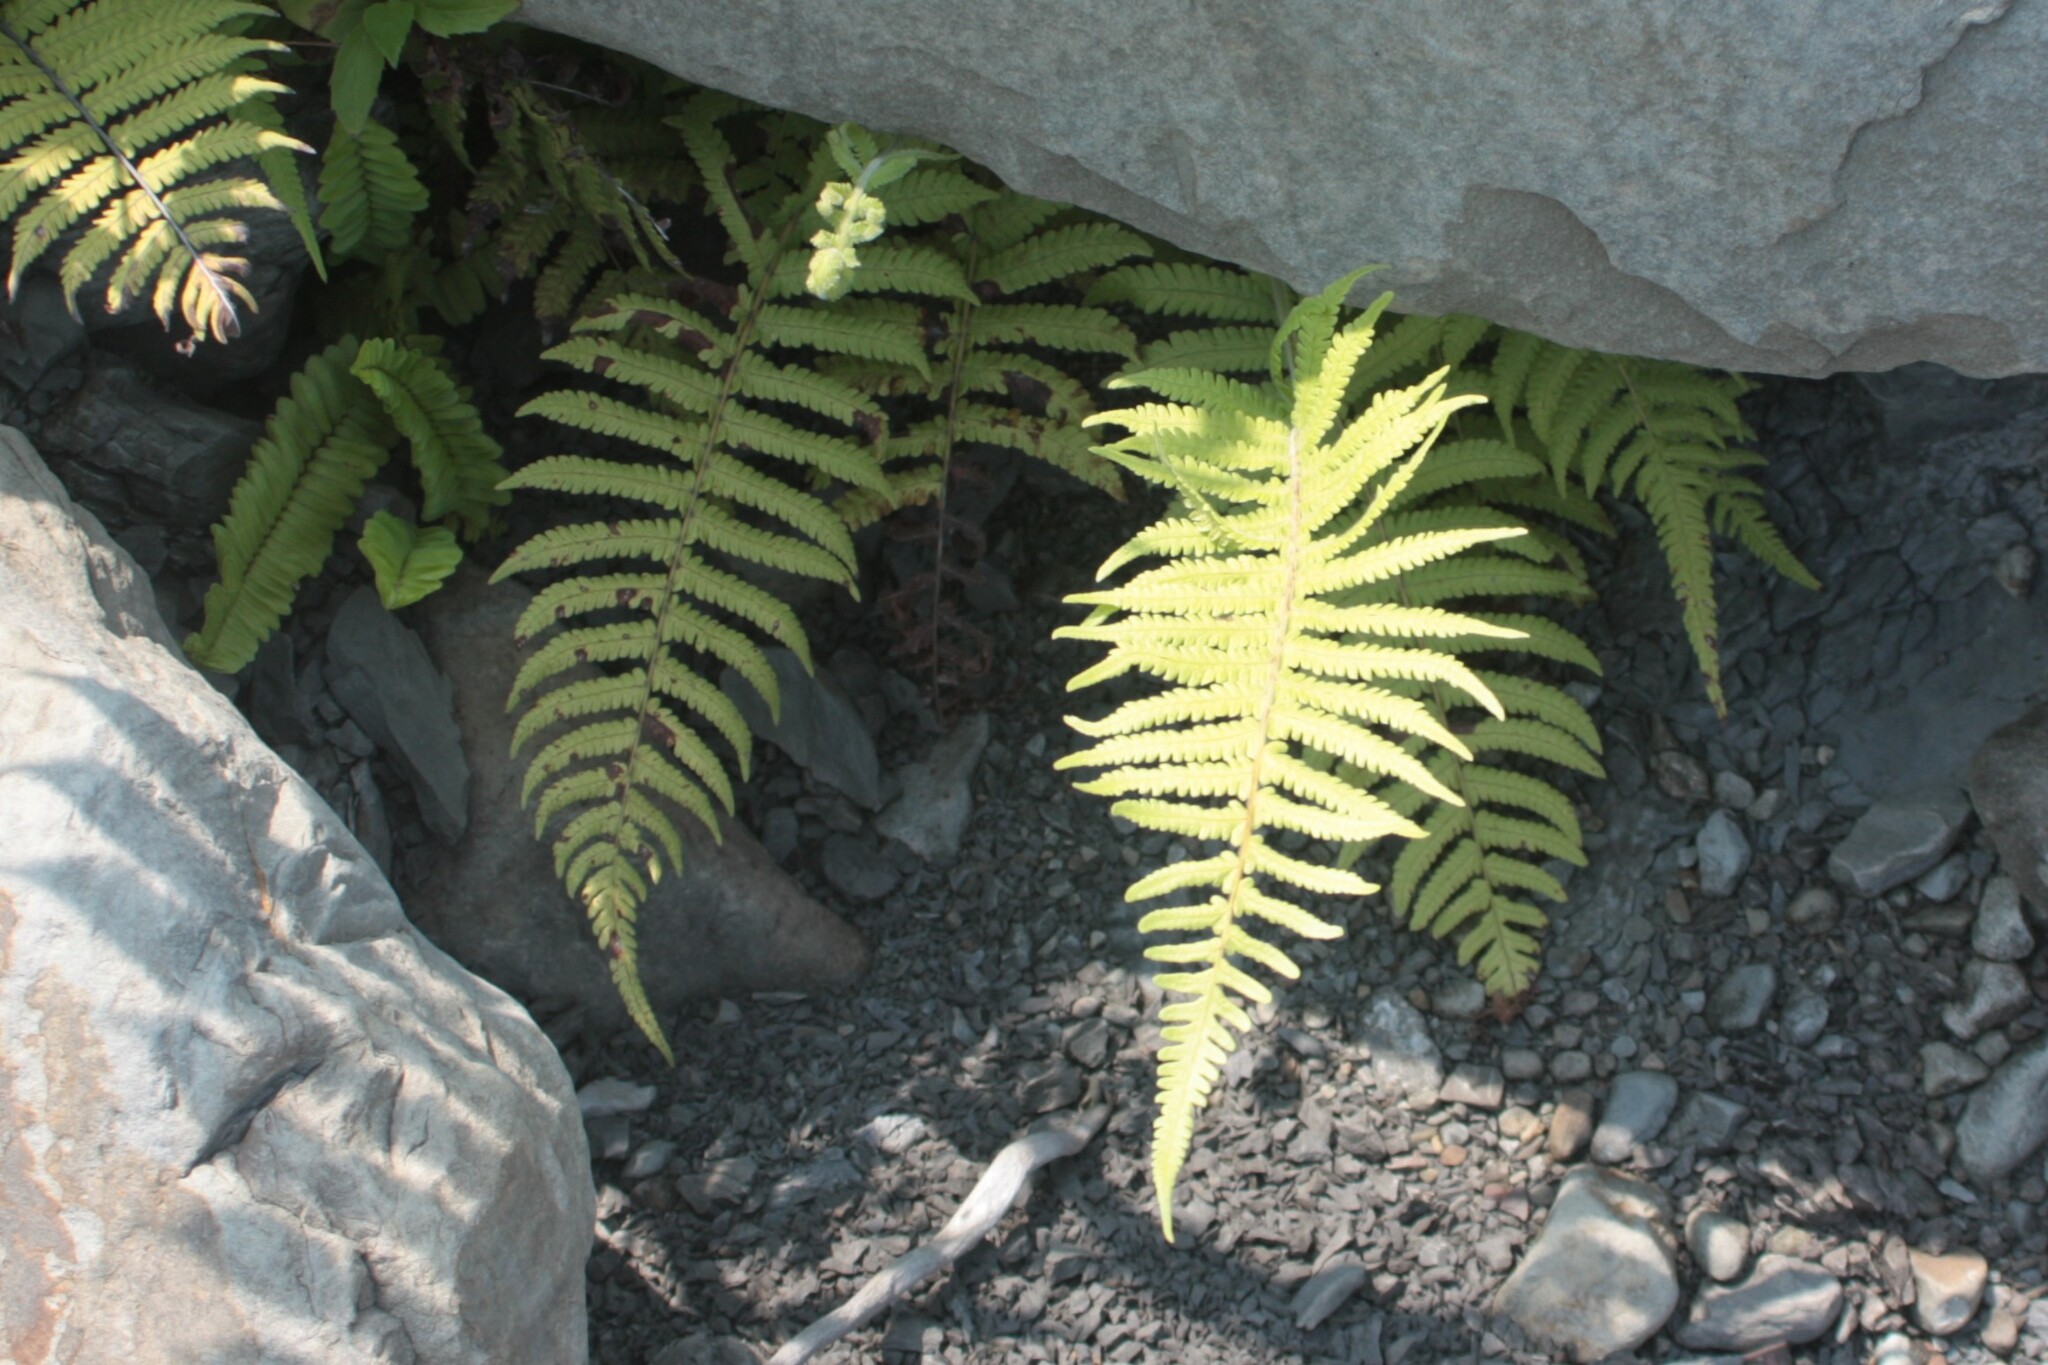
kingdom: Plantae
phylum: Tracheophyta
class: Polypodiopsida
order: Polypodiales
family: Thelypteridaceae
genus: Christella
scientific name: Christella parasitica
